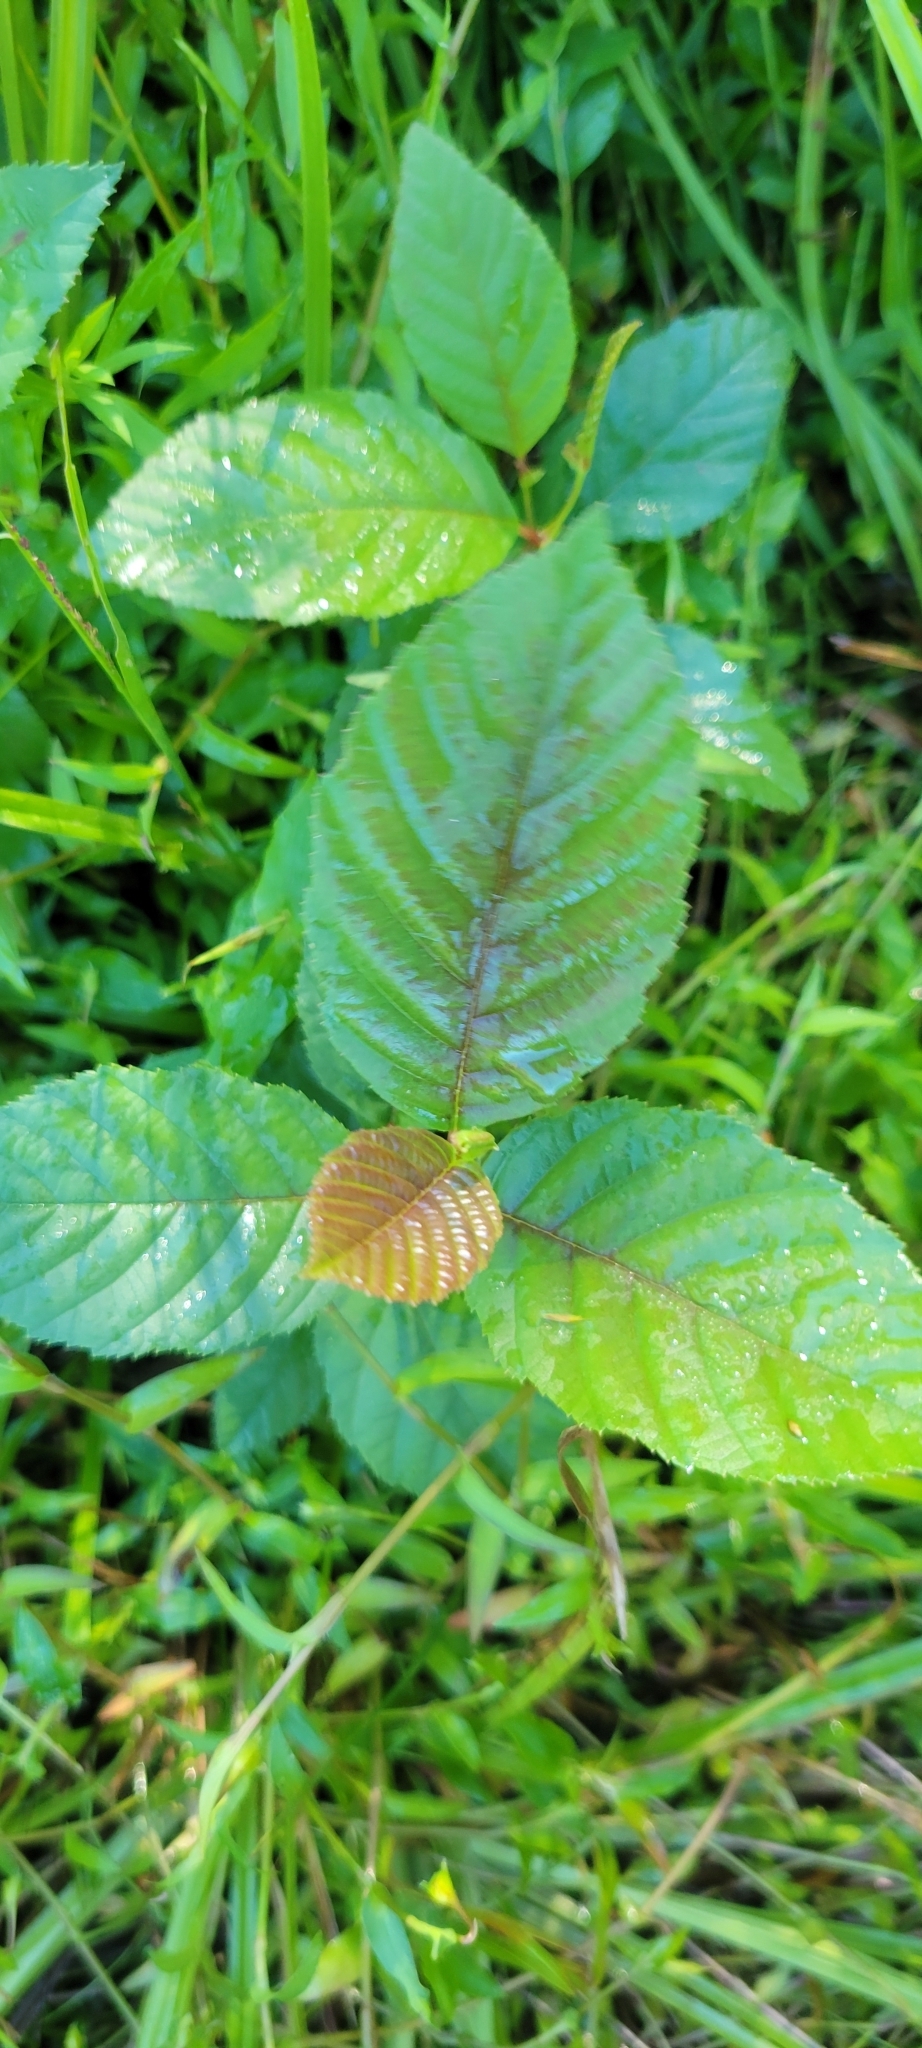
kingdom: Plantae
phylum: Tracheophyta
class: Magnoliopsida
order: Fagales
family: Betulaceae
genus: Alnus
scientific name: Alnus serrulata
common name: Hazel alder
